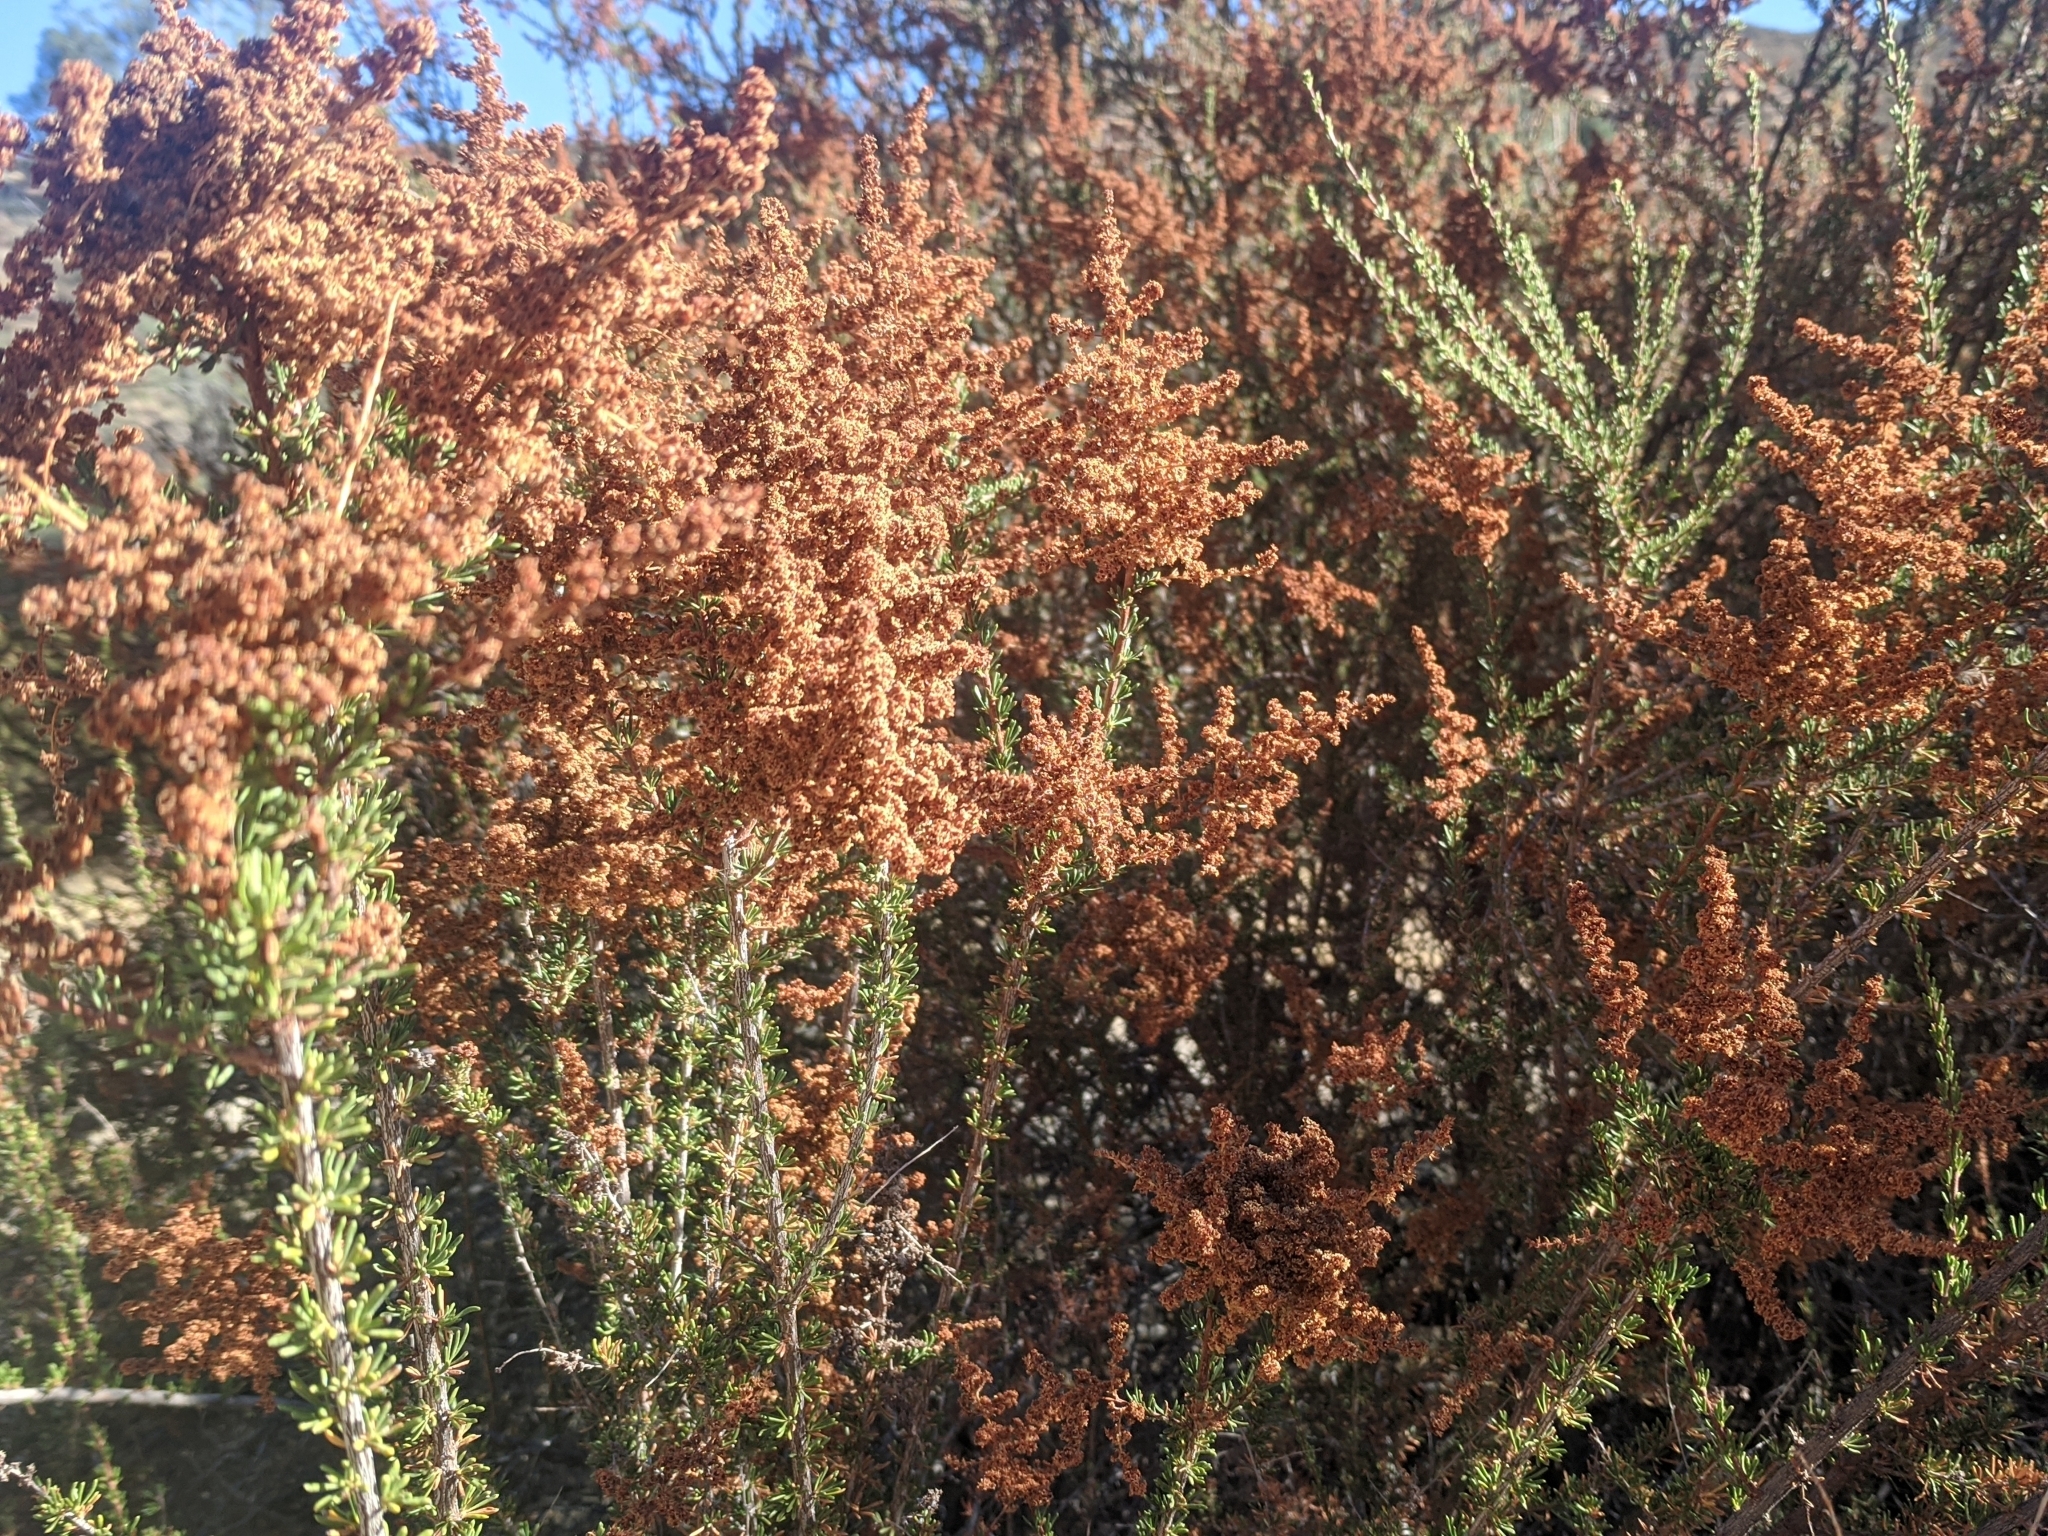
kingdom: Plantae
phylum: Tracheophyta
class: Magnoliopsida
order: Rosales
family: Rosaceae
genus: Adenostoma
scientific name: Adenostoma fasciculatum
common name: Chamise
